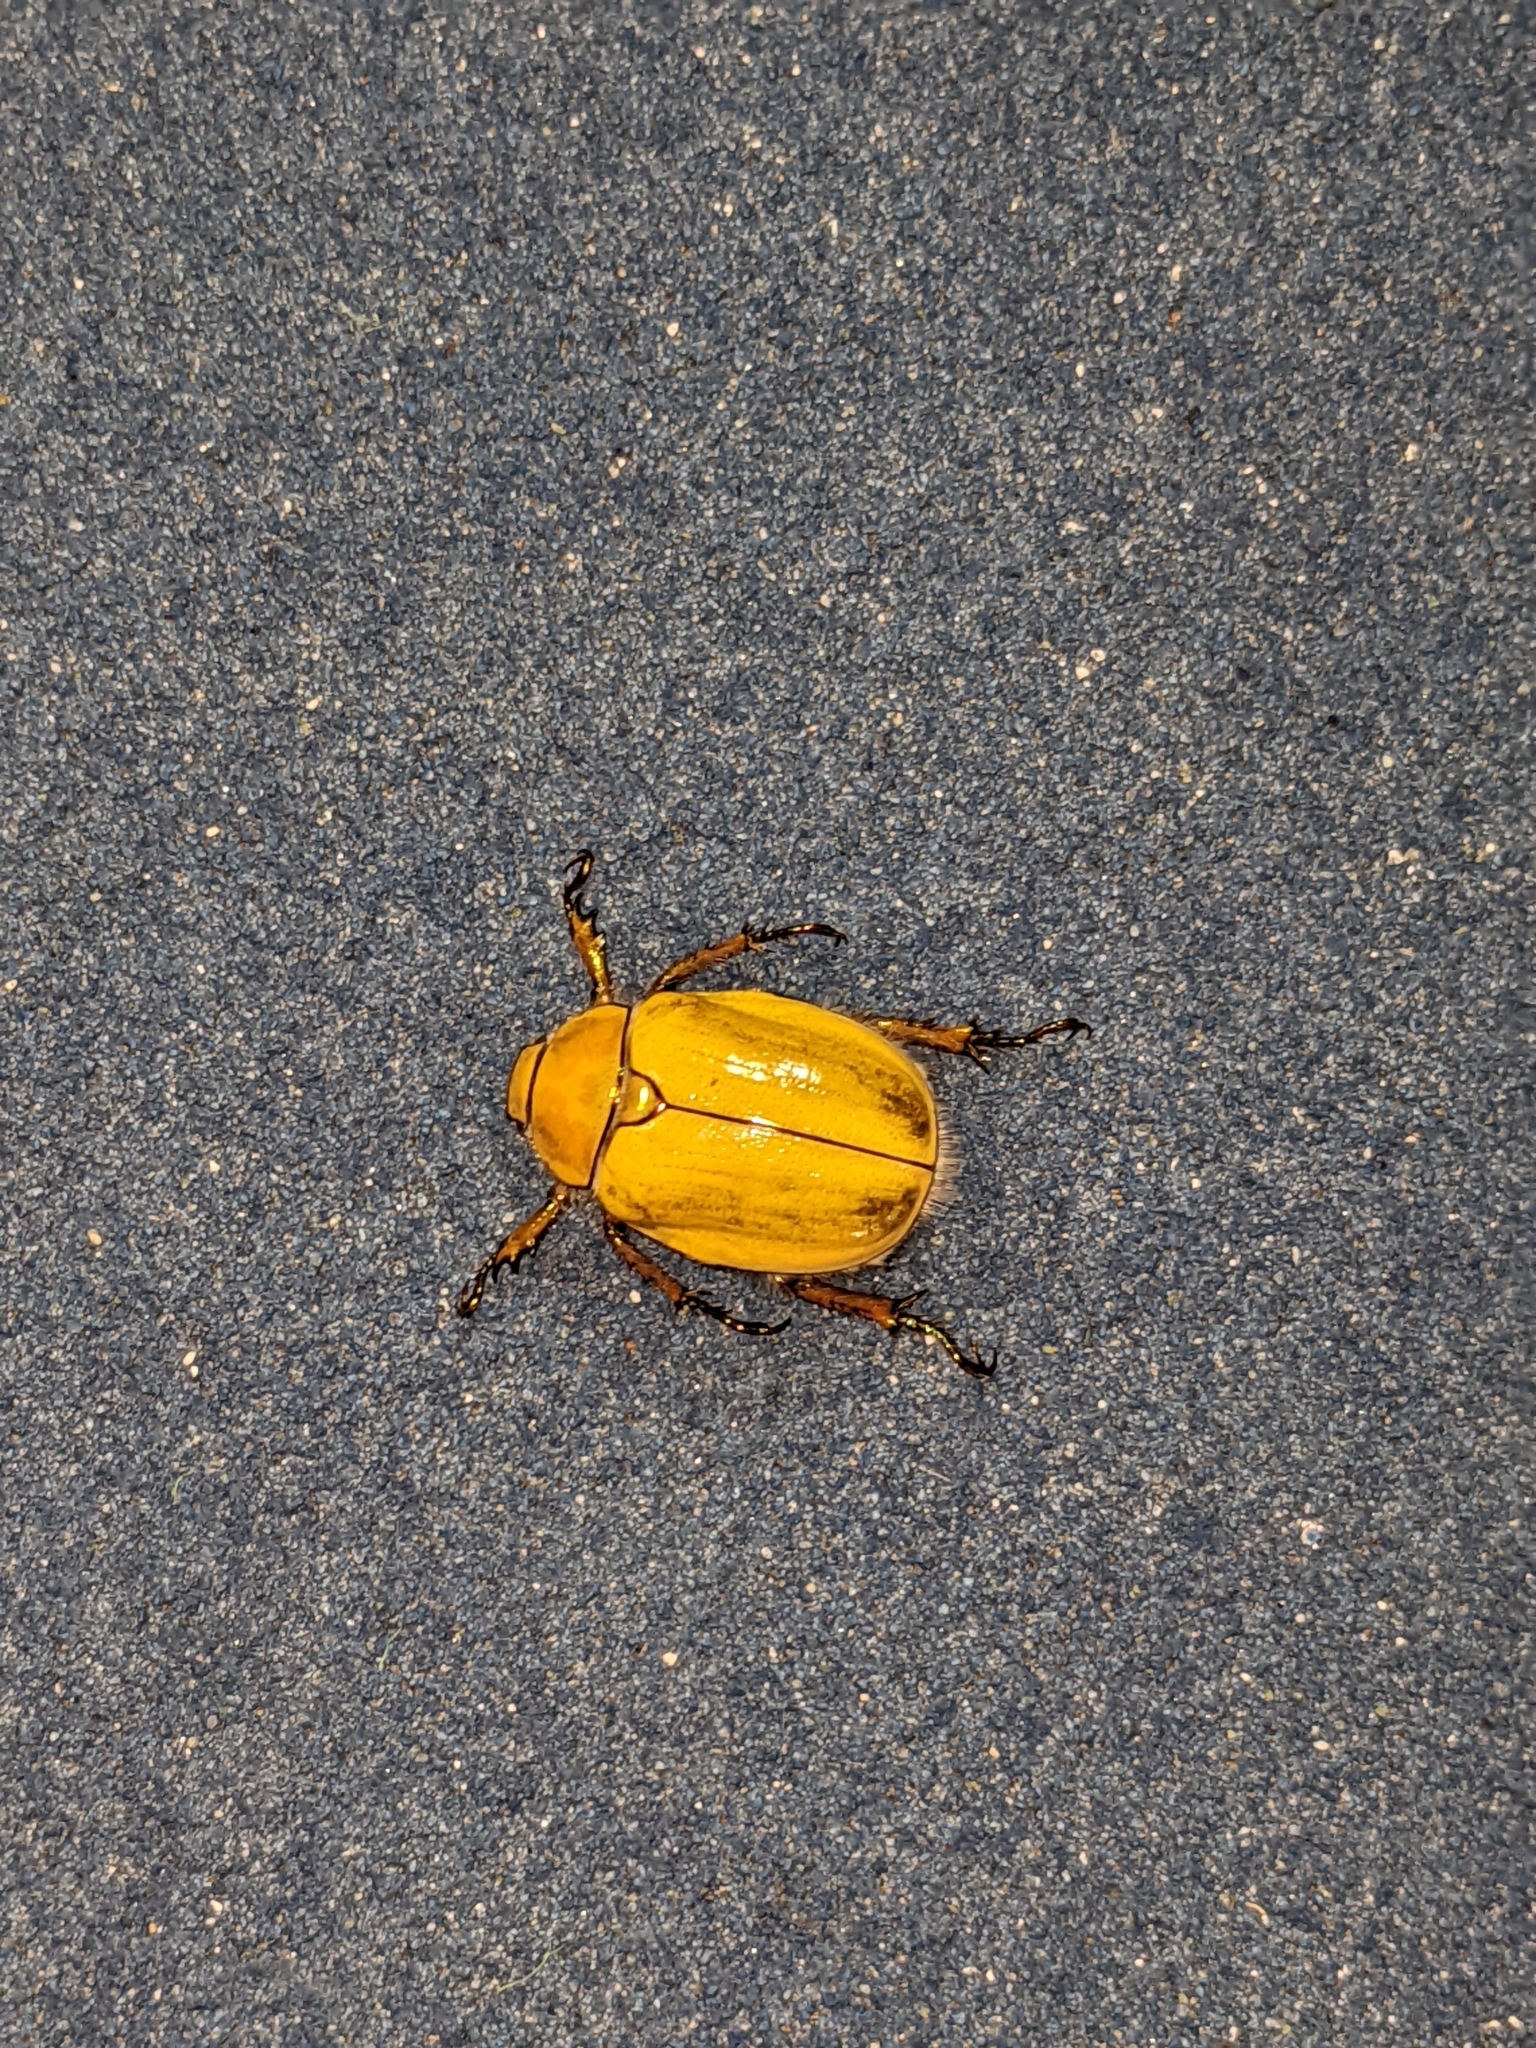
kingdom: Animalia
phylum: Arthropoda
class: Insecta
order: Coleoptera
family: Scarabaeidae
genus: Cotalpa
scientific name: Cotalpa lanigera
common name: Goldsmith beetle
